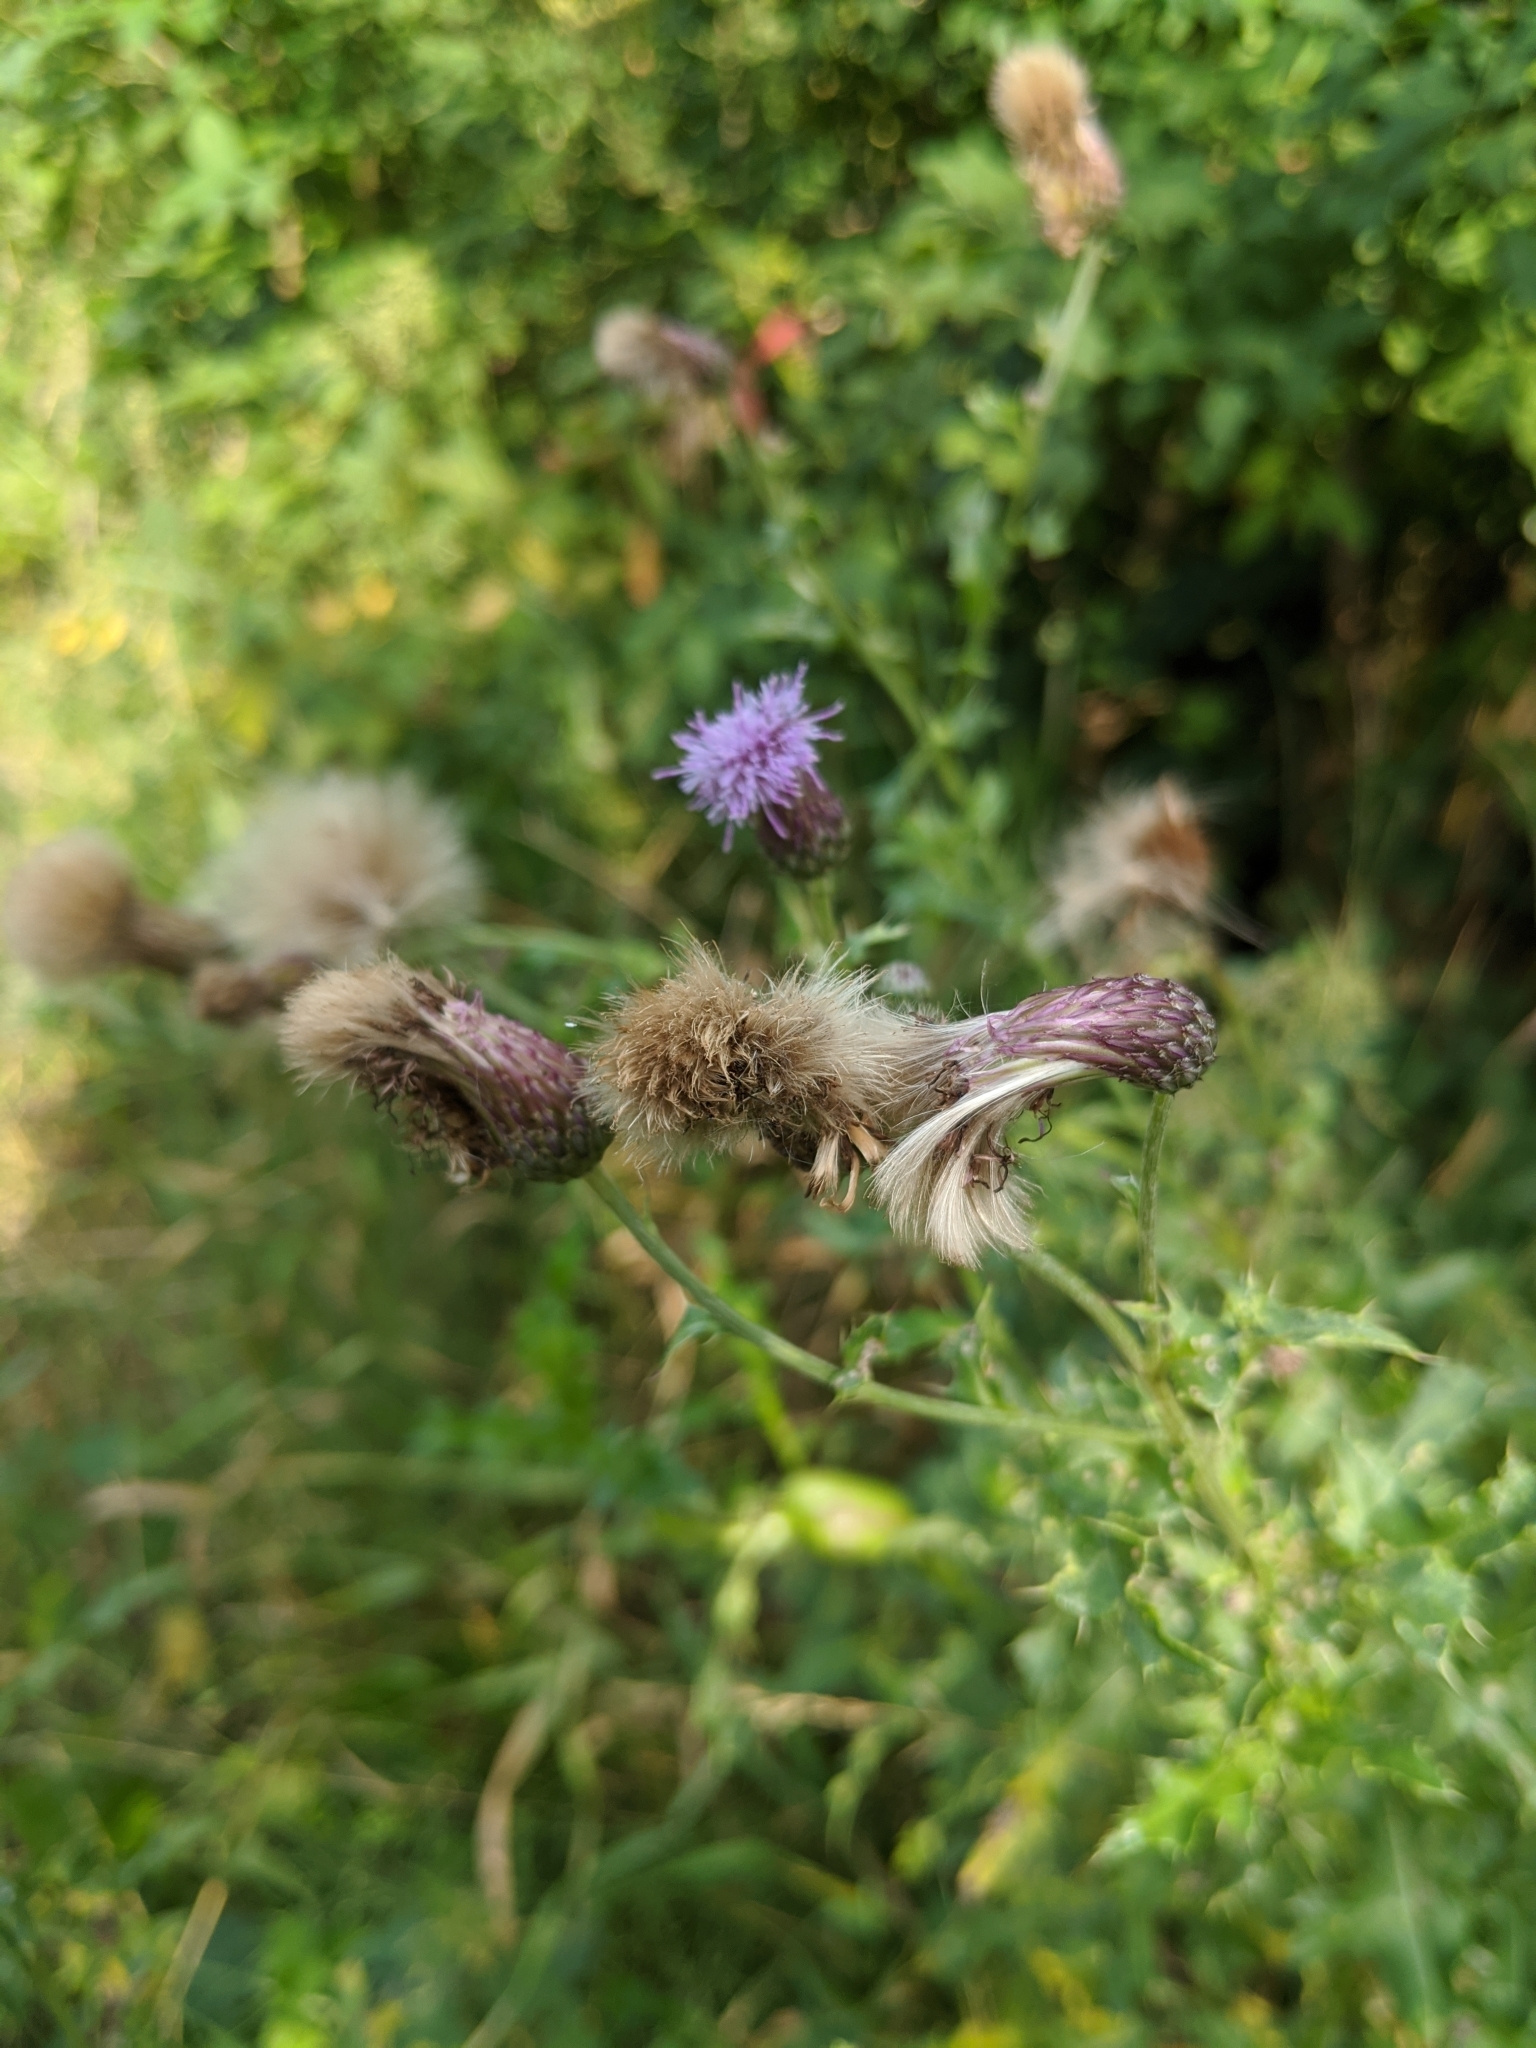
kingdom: Plantae
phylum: Tracheophyta
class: Magnoliopsida
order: Asterales
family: Asteraceae
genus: Cirsium
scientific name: Cirsium arvense
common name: Creeping thistle
